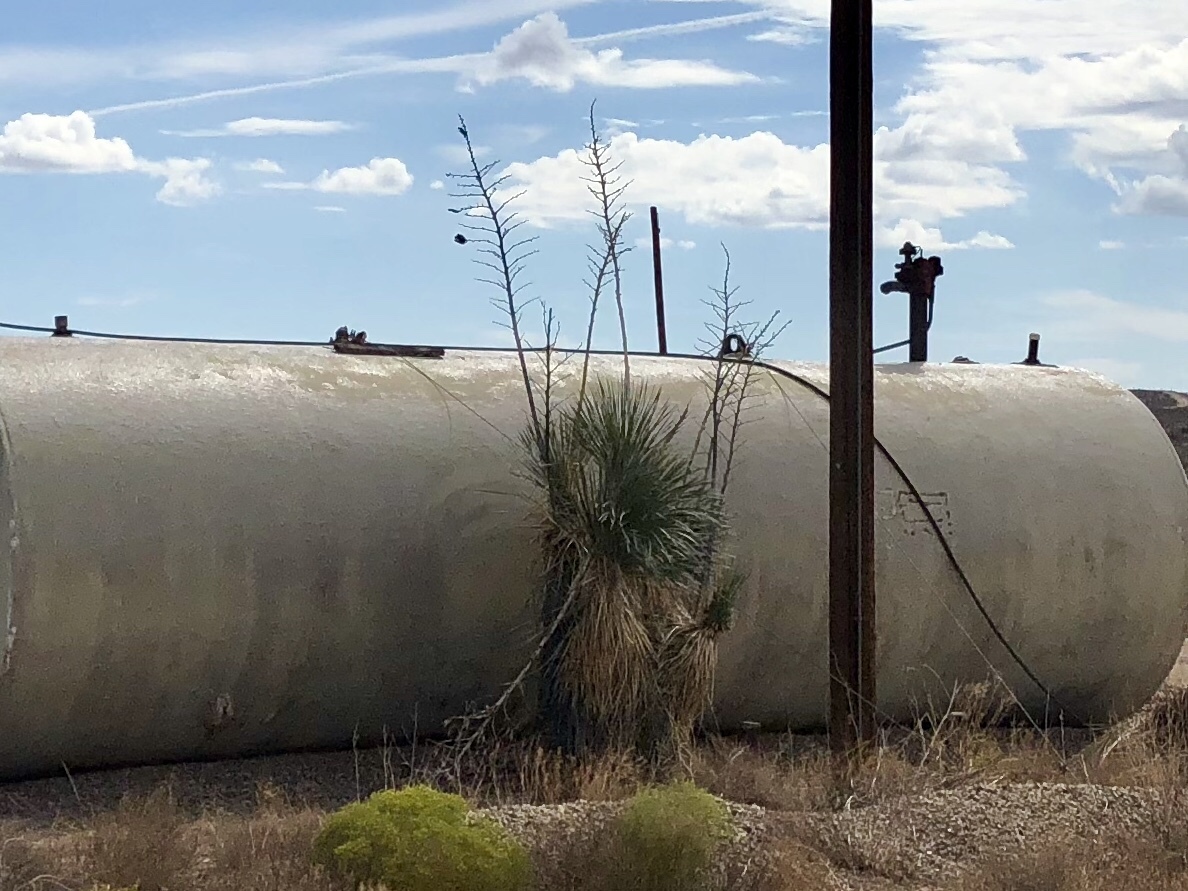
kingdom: Plantae
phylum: Tracheophyta
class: Liliopsida
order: Asparagales
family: Asparagaceae
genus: Yucca
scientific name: Yucca elata
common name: Palmella
